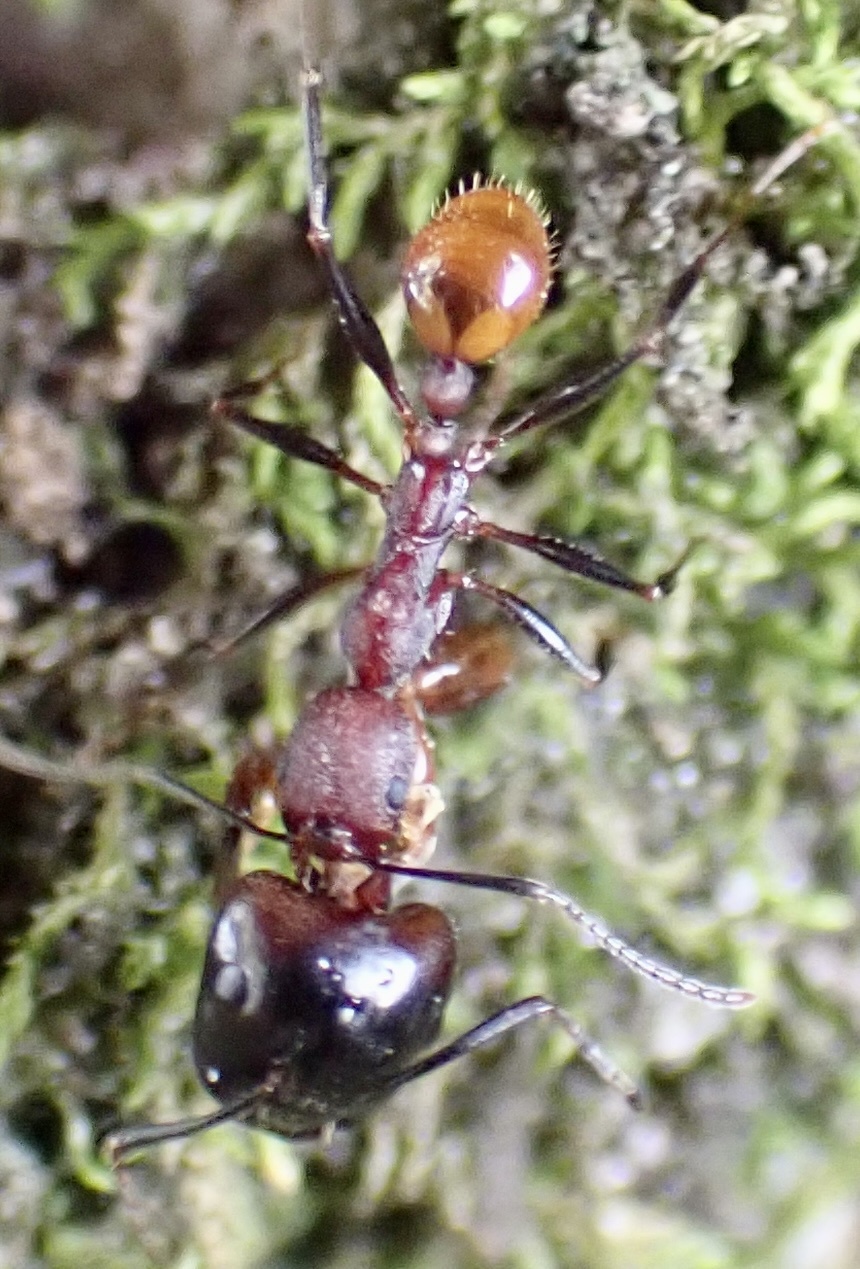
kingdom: Animalia
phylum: Arthropoda
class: Insecta
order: Hymenoptera
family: Formicidae
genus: Aphaenogaster
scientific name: Aphaenogaster lamellidens
